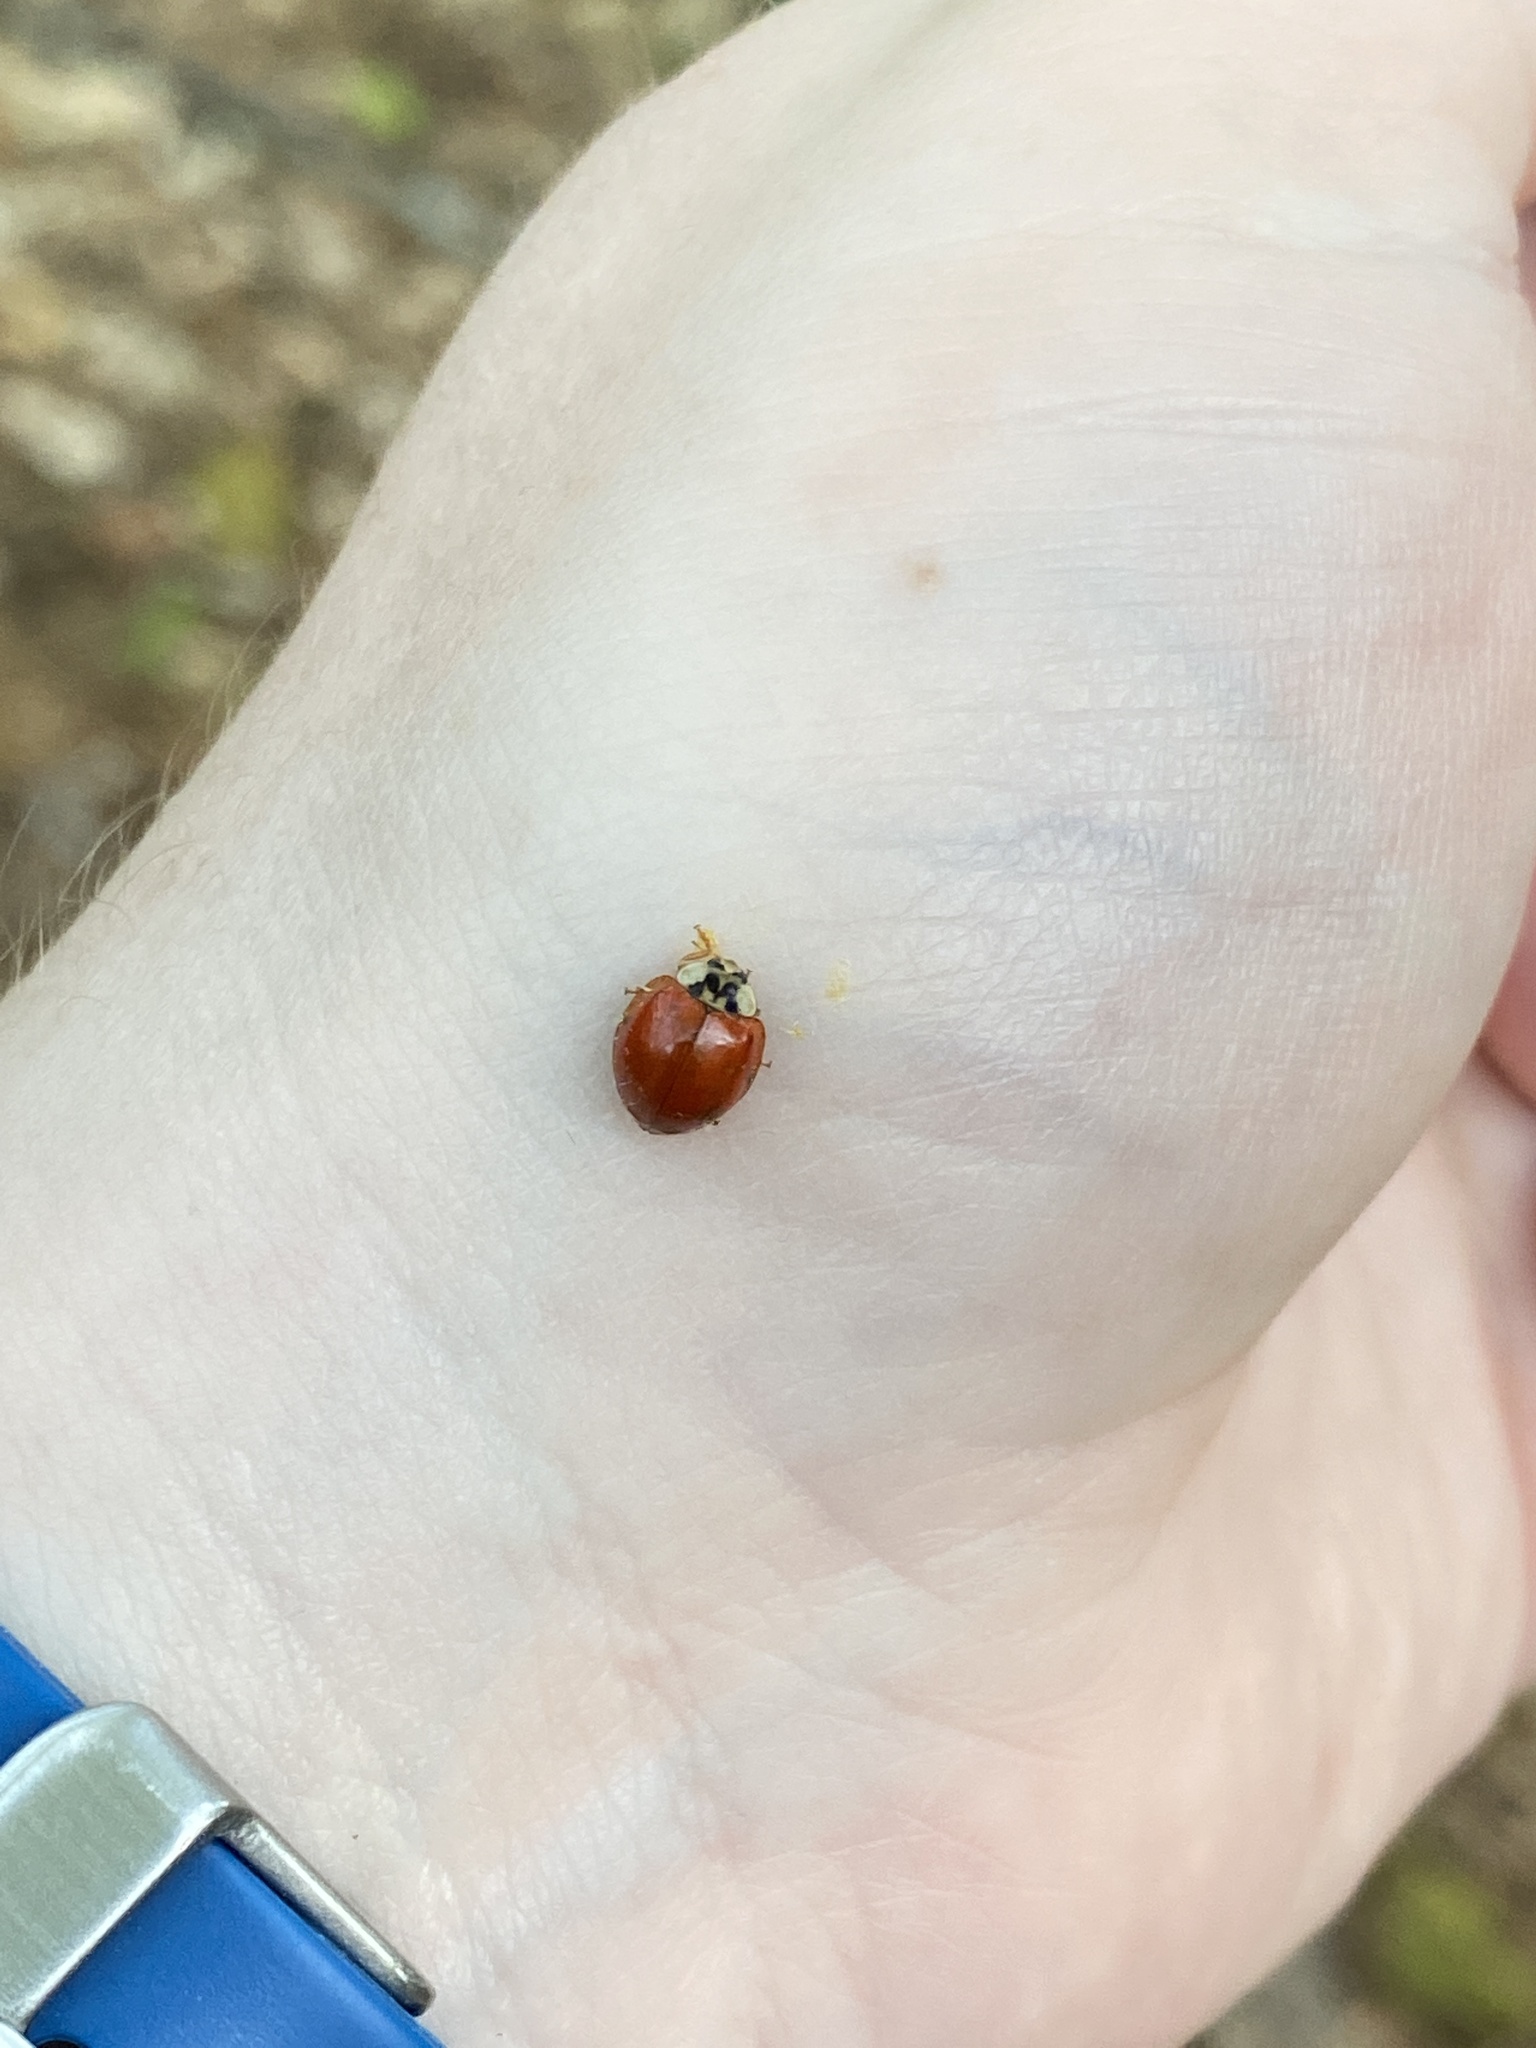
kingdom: Animalia
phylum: Arthropoda
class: Insecta
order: Coleoptera
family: Coccinellidae
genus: Harmonia
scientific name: Harmonia axyridis
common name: Harlequin ladybird
